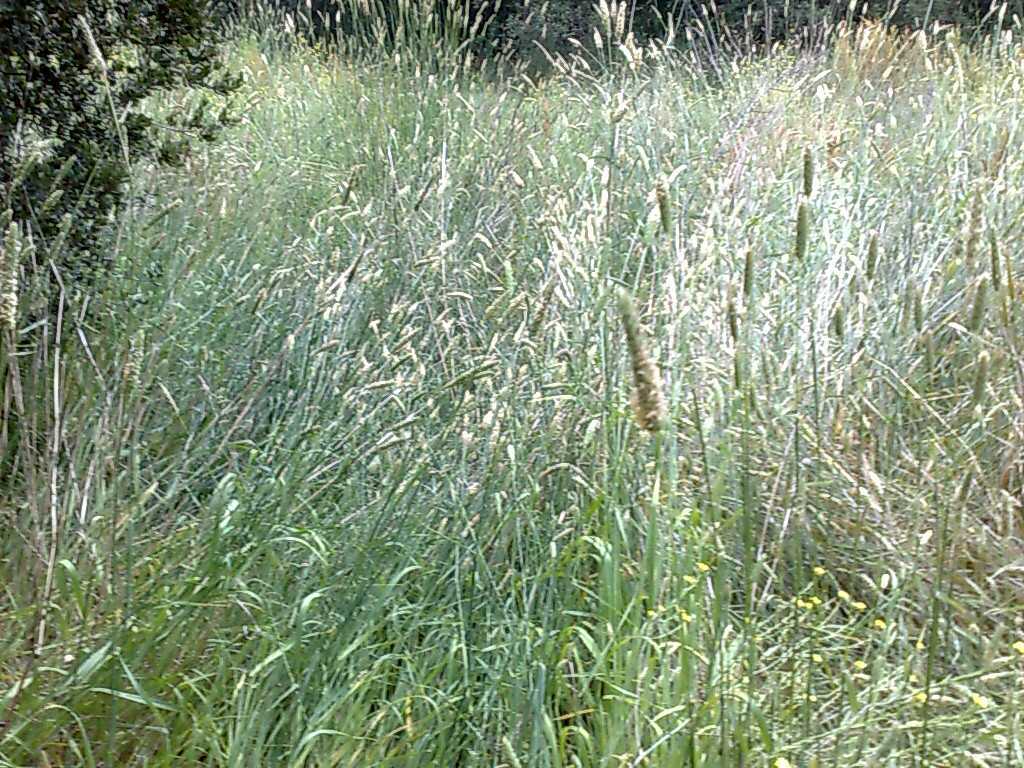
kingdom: Plantae
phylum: Tracheophyta
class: Liliopsida
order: Poales
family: Poaceae
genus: Phalaris
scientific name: Phalaris aquatica
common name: Bulbous canary-grass
